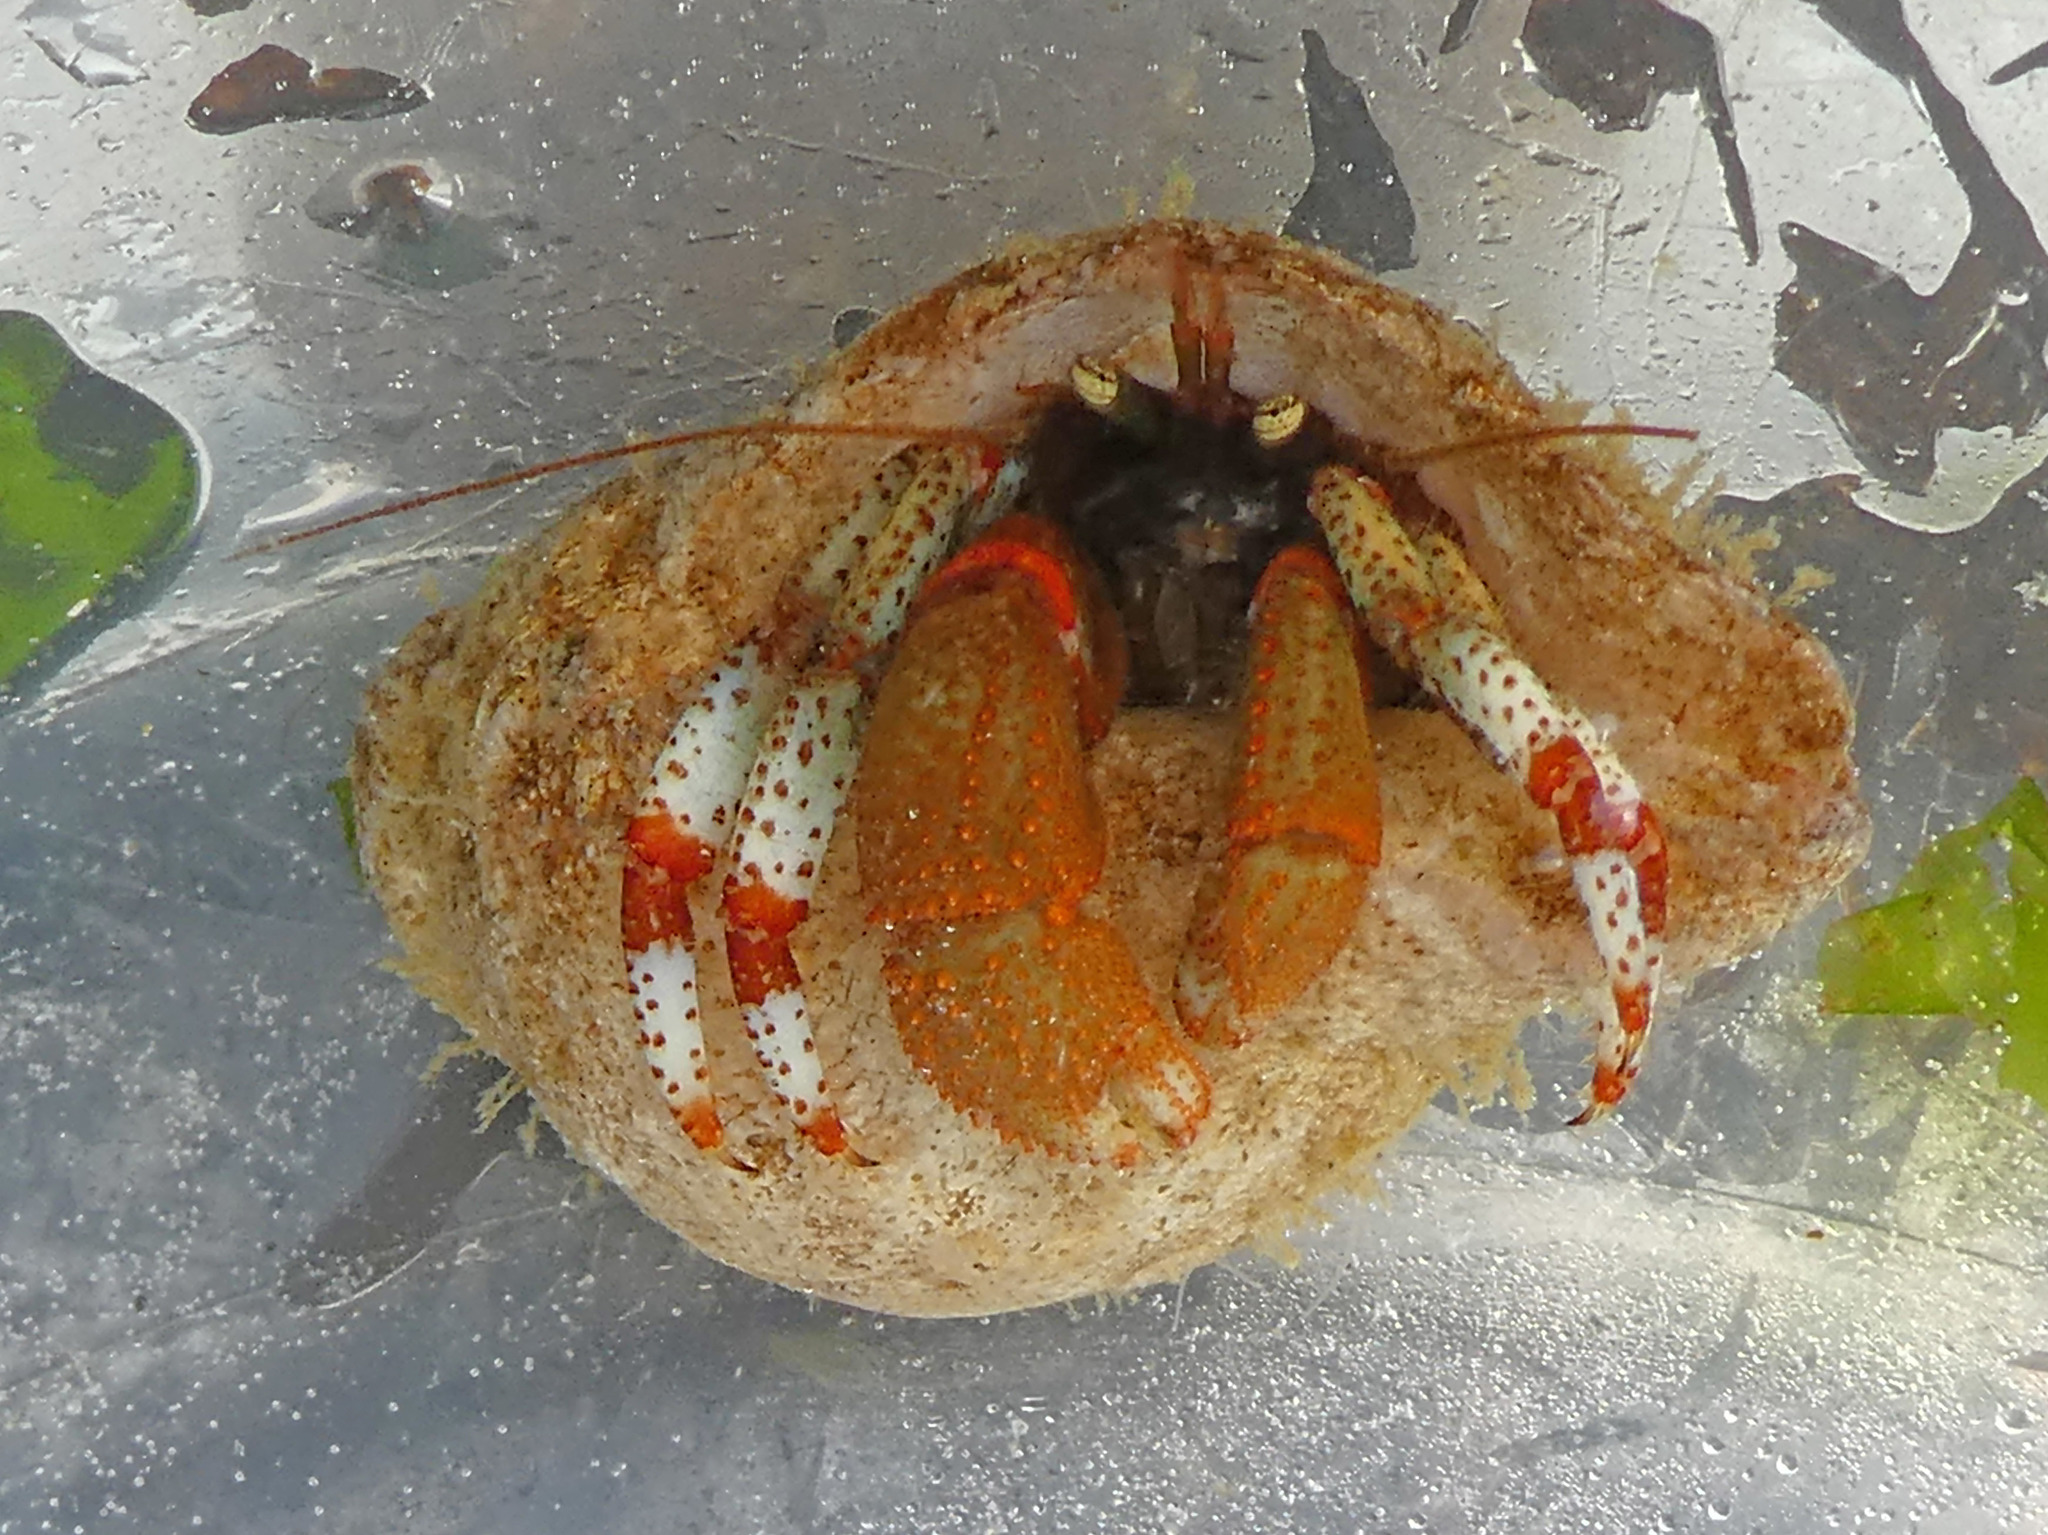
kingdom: Animalia
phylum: Arthropoda
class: Malacostraca
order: Decapoda
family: Paguridae
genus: Pagurus
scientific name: Pagurus beringanus
